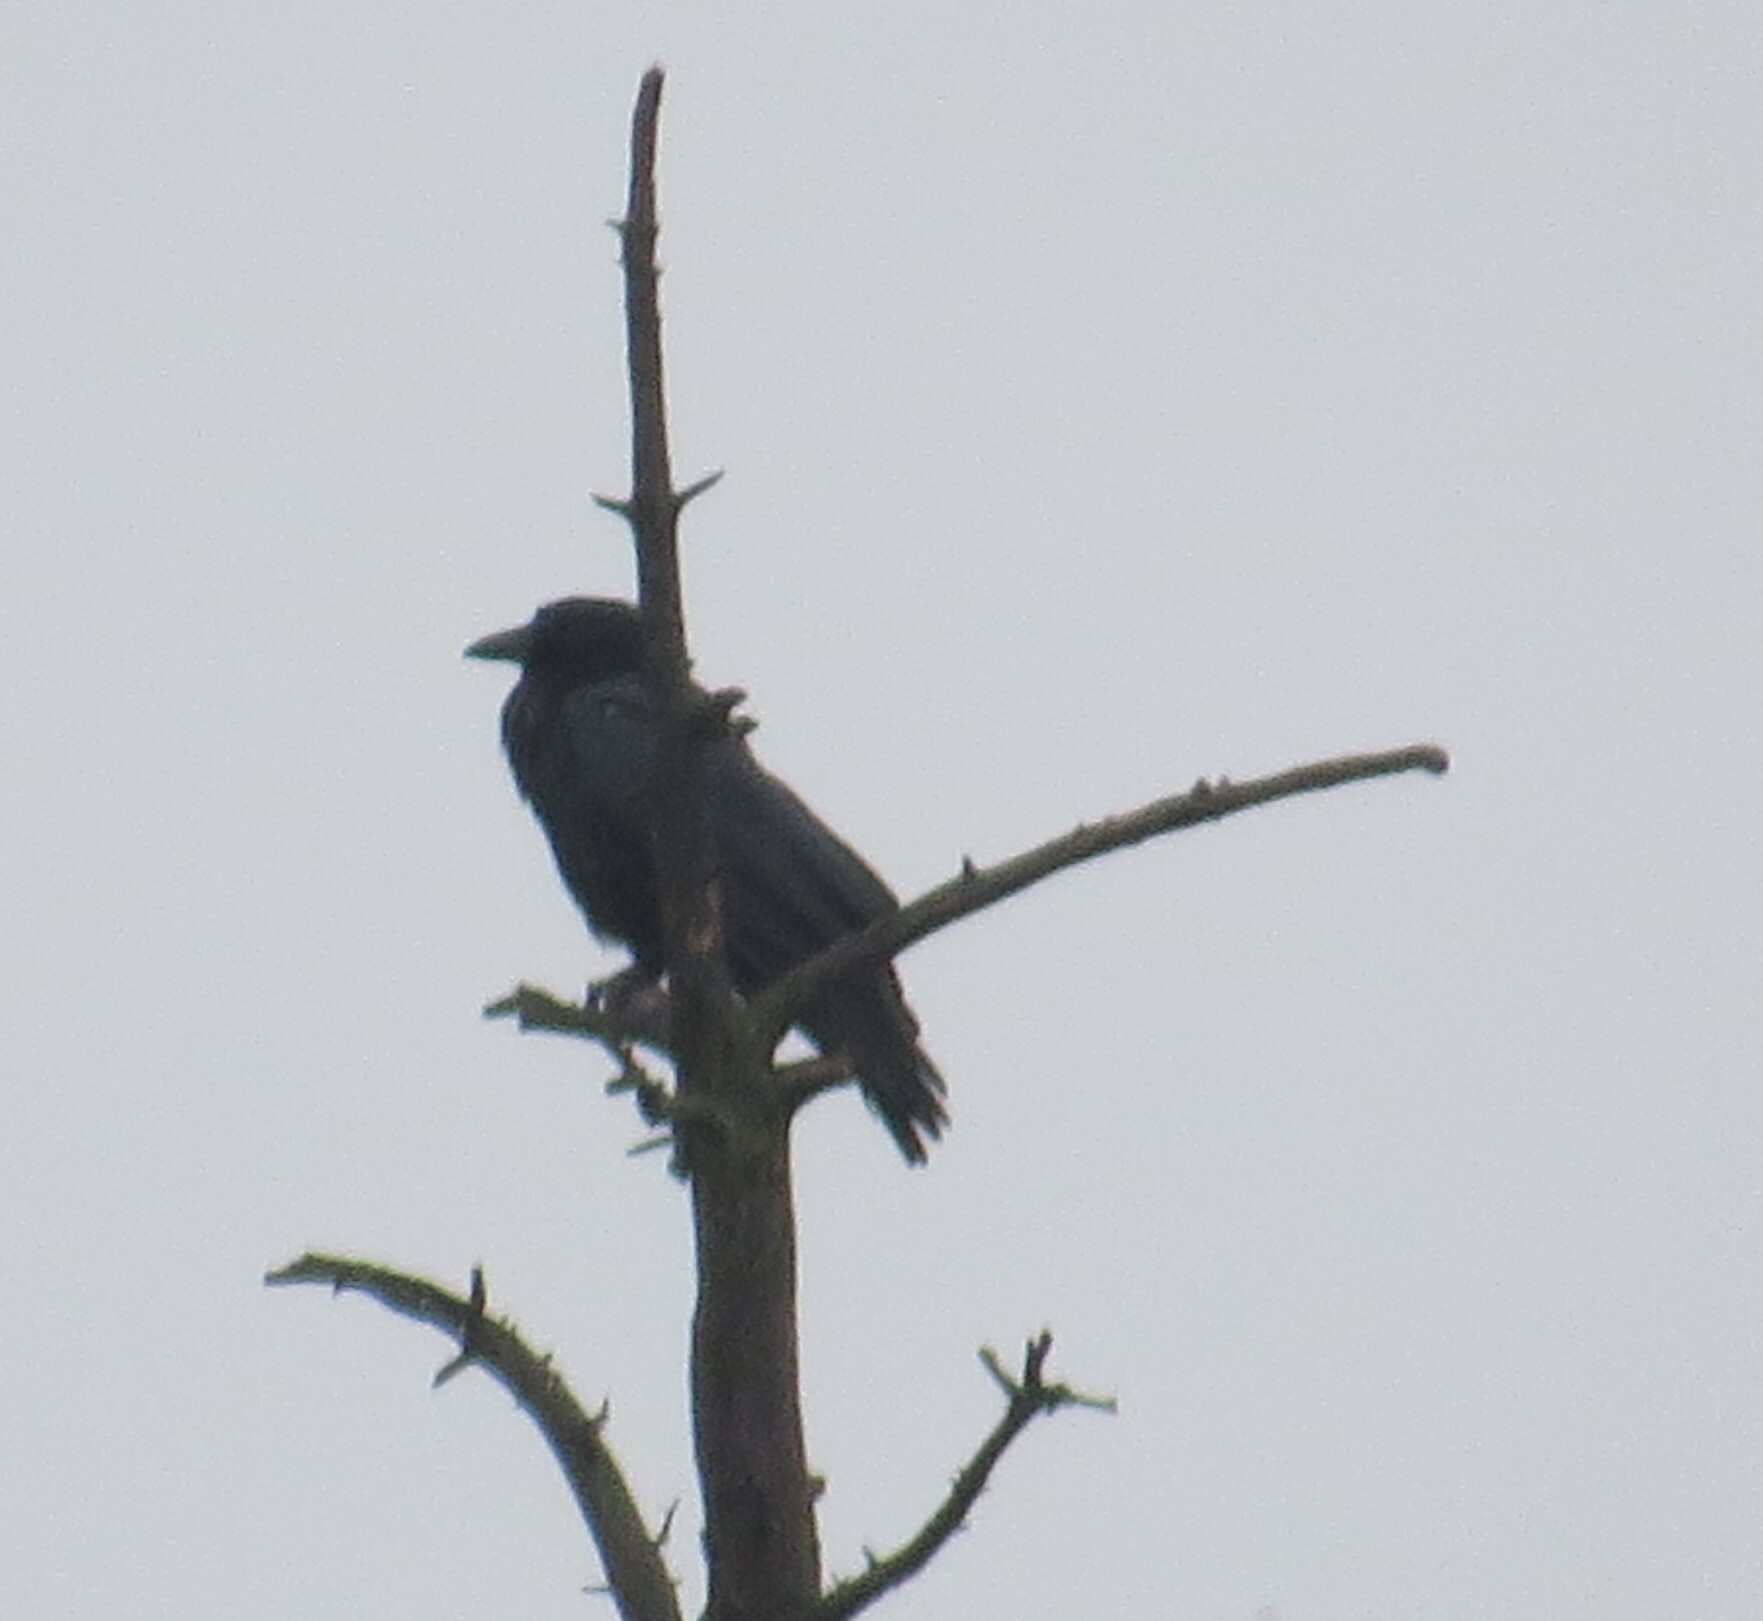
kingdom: Animalia
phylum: Chordata
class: Aves
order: Passeriformes
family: Corvidae
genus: Corvus
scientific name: Corvus brachyrhynchos
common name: American crow
